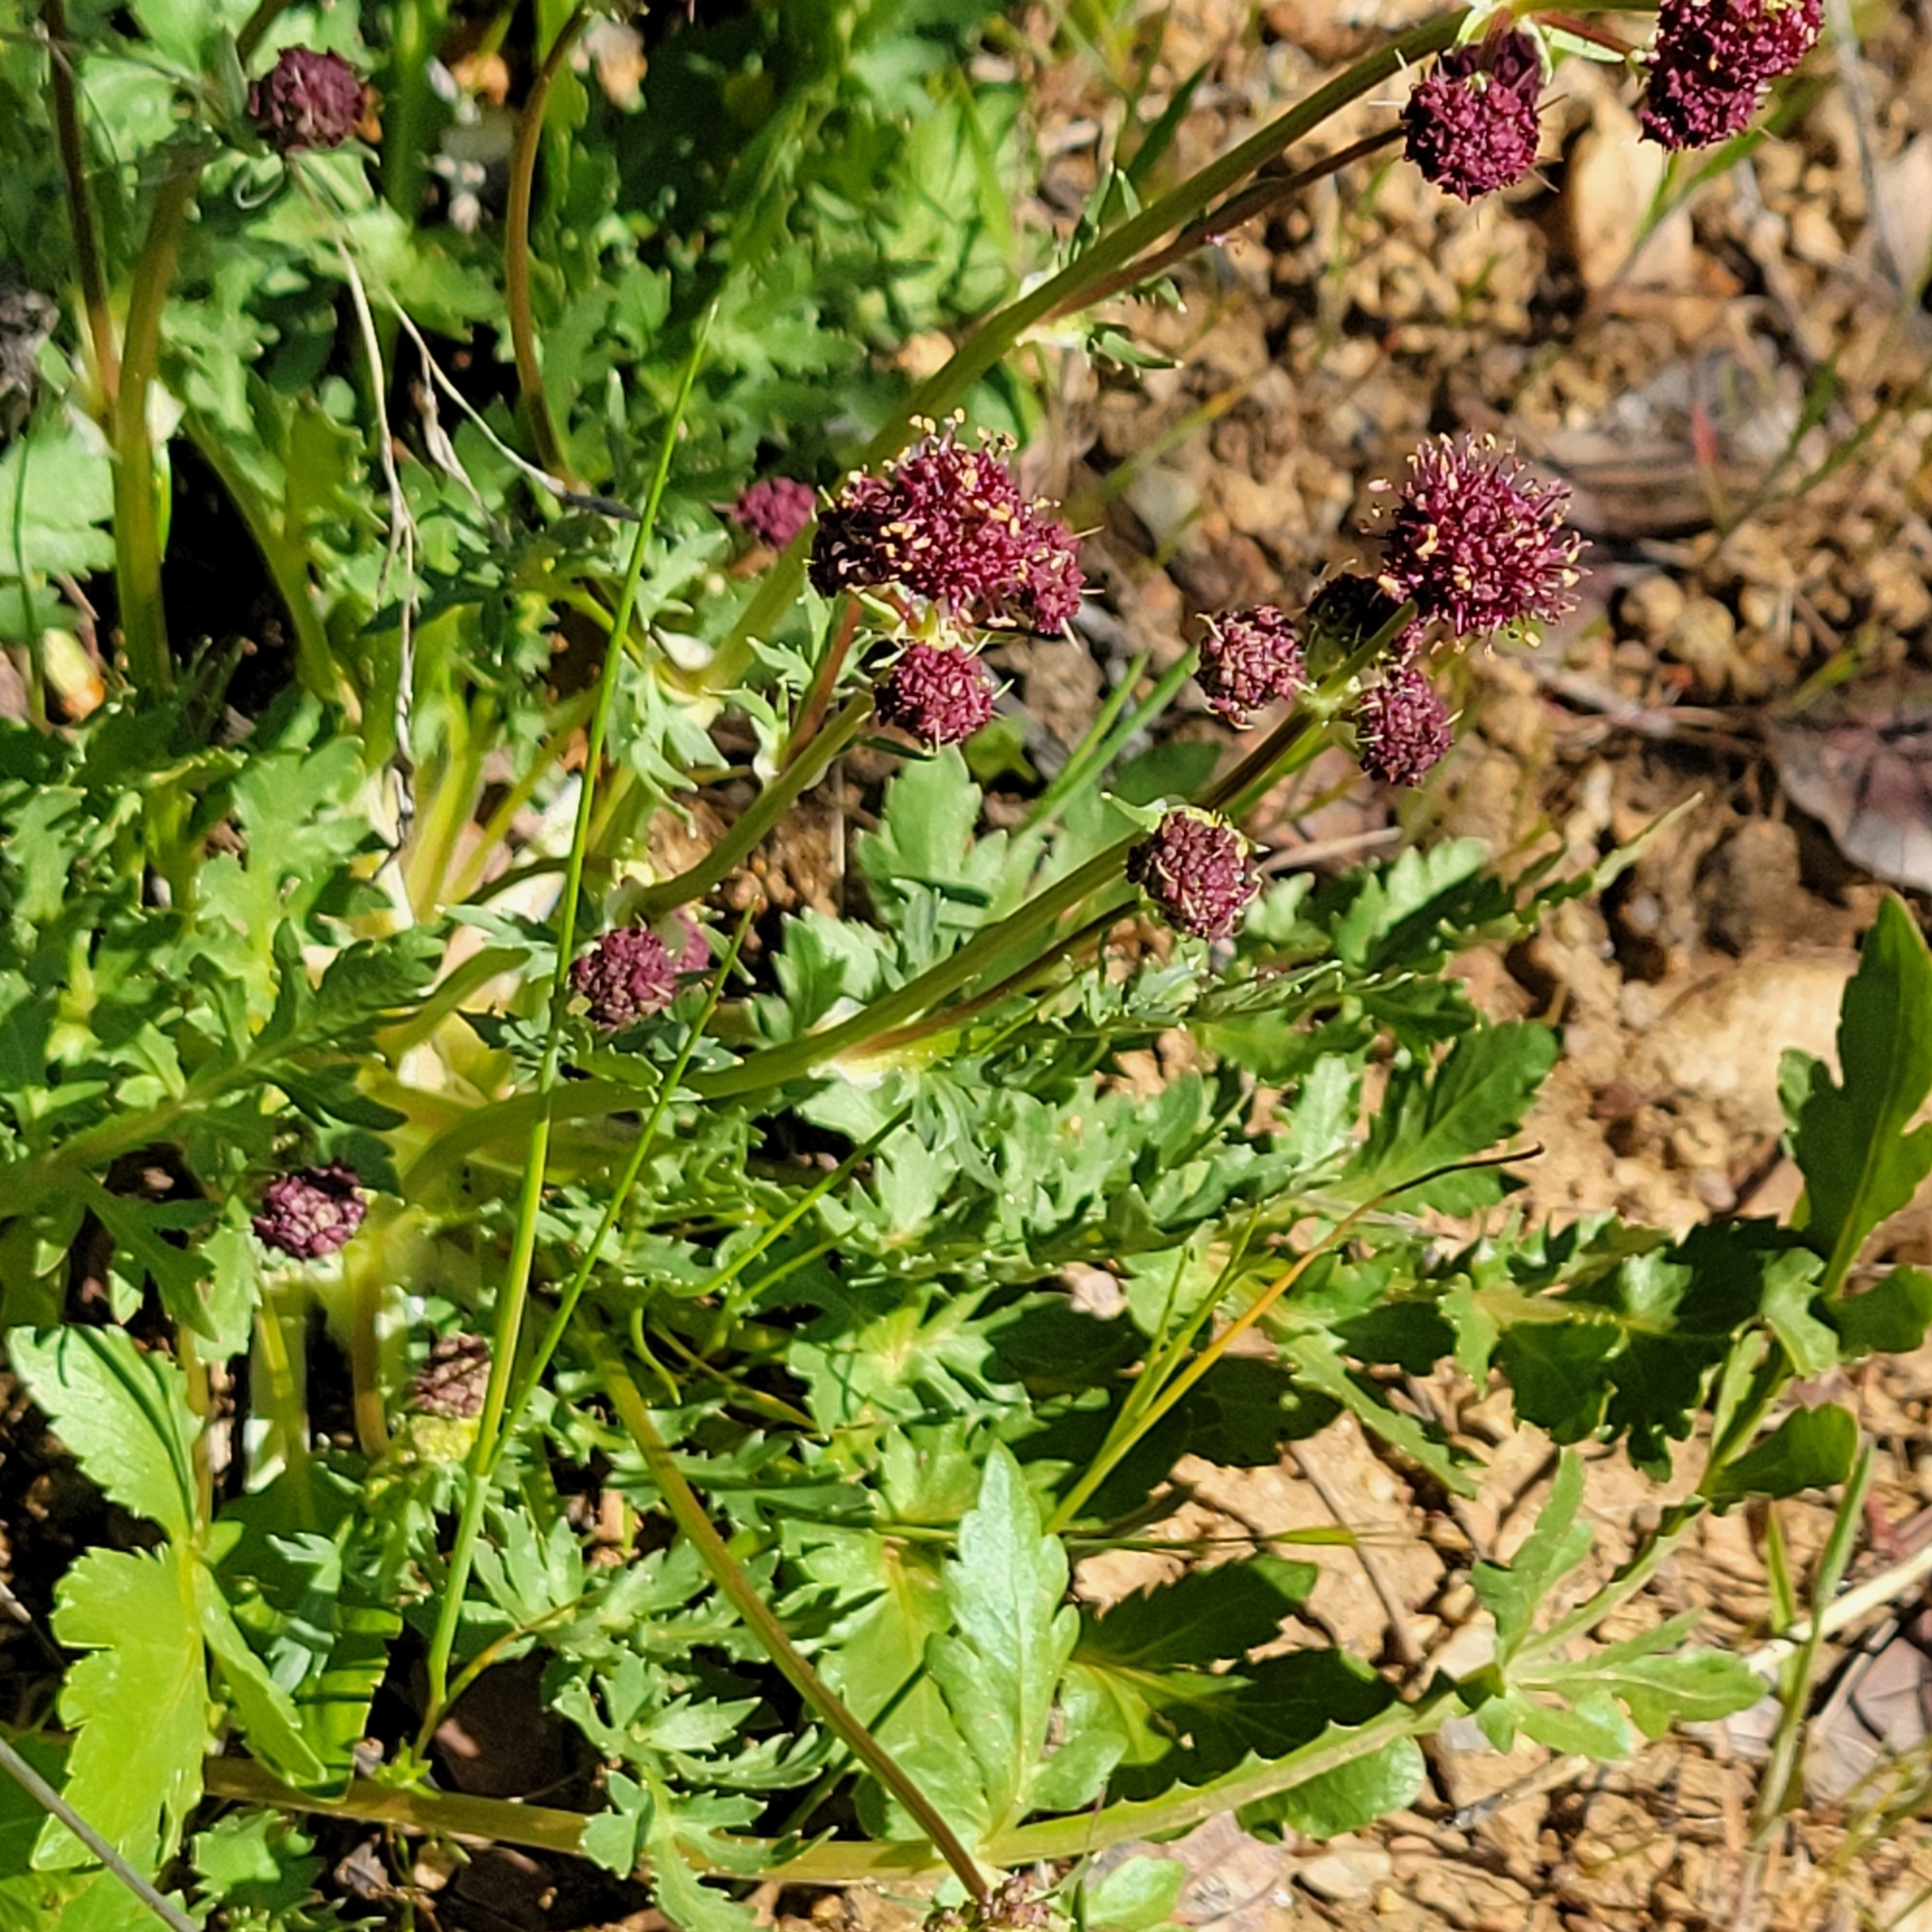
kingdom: Plantae
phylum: Tracheophyta
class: Magnoliopsida
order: Apiales
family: Apiaceae
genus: Sanicula
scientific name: Sanicula bipinnatifida
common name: Shoe-buttons
